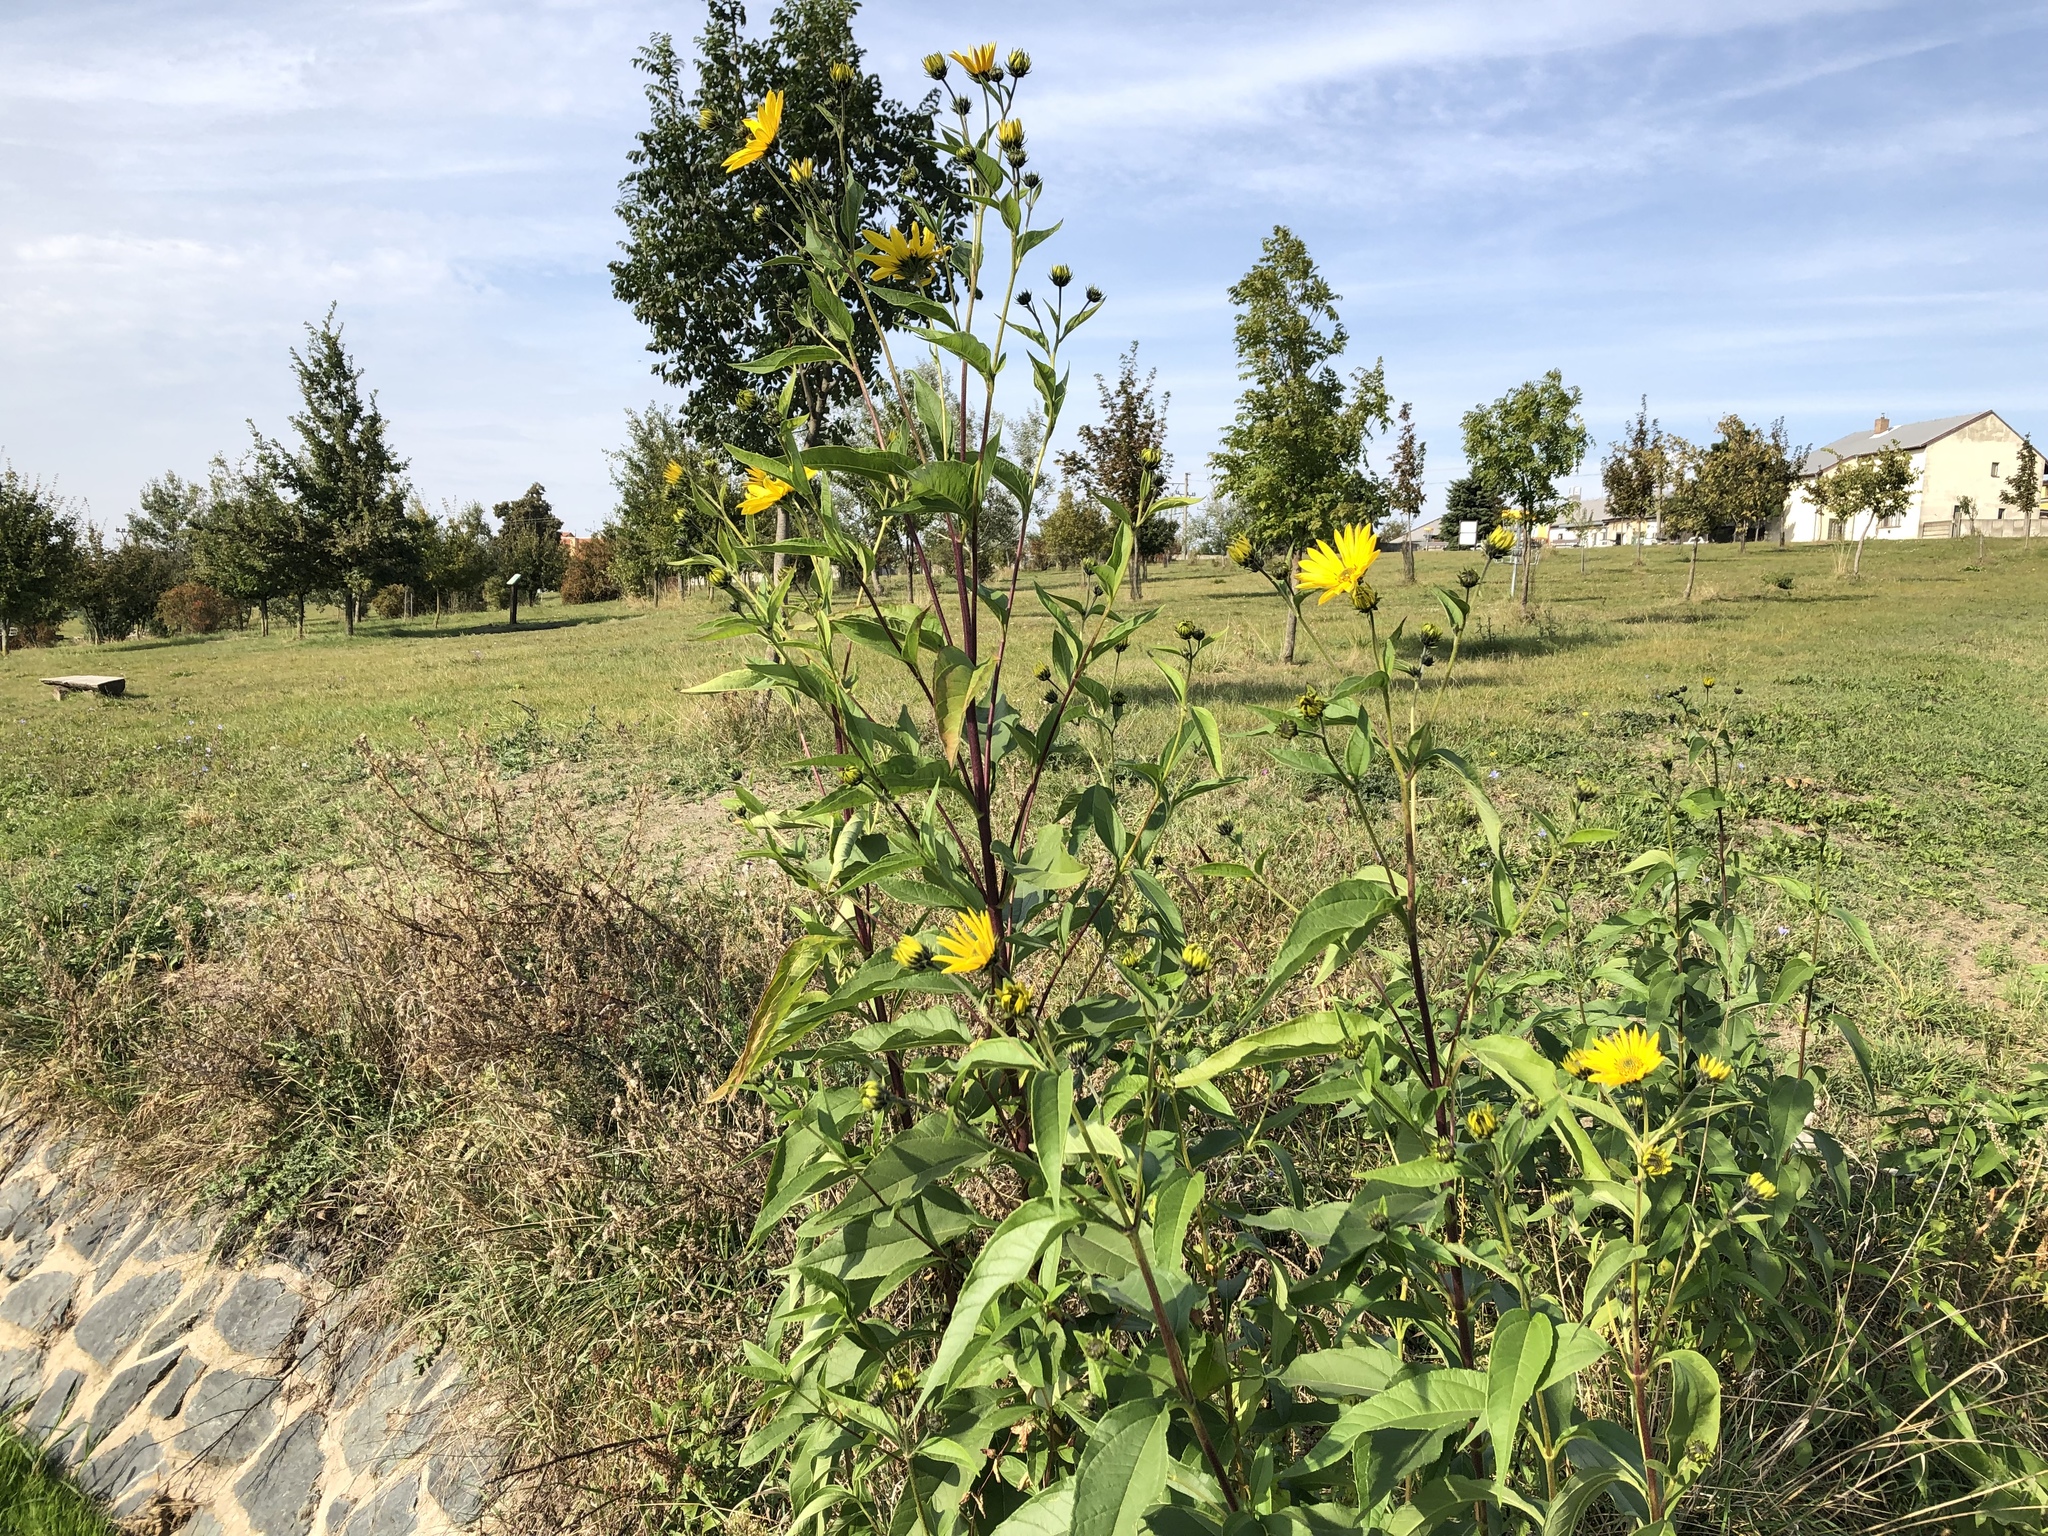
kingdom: Plantae
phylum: Tracheophyta
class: Magnoliopsida
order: Asterales
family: Asteraceae
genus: Helianthus
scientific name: Helianthus tuberosus
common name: Jerusalem artichoke
